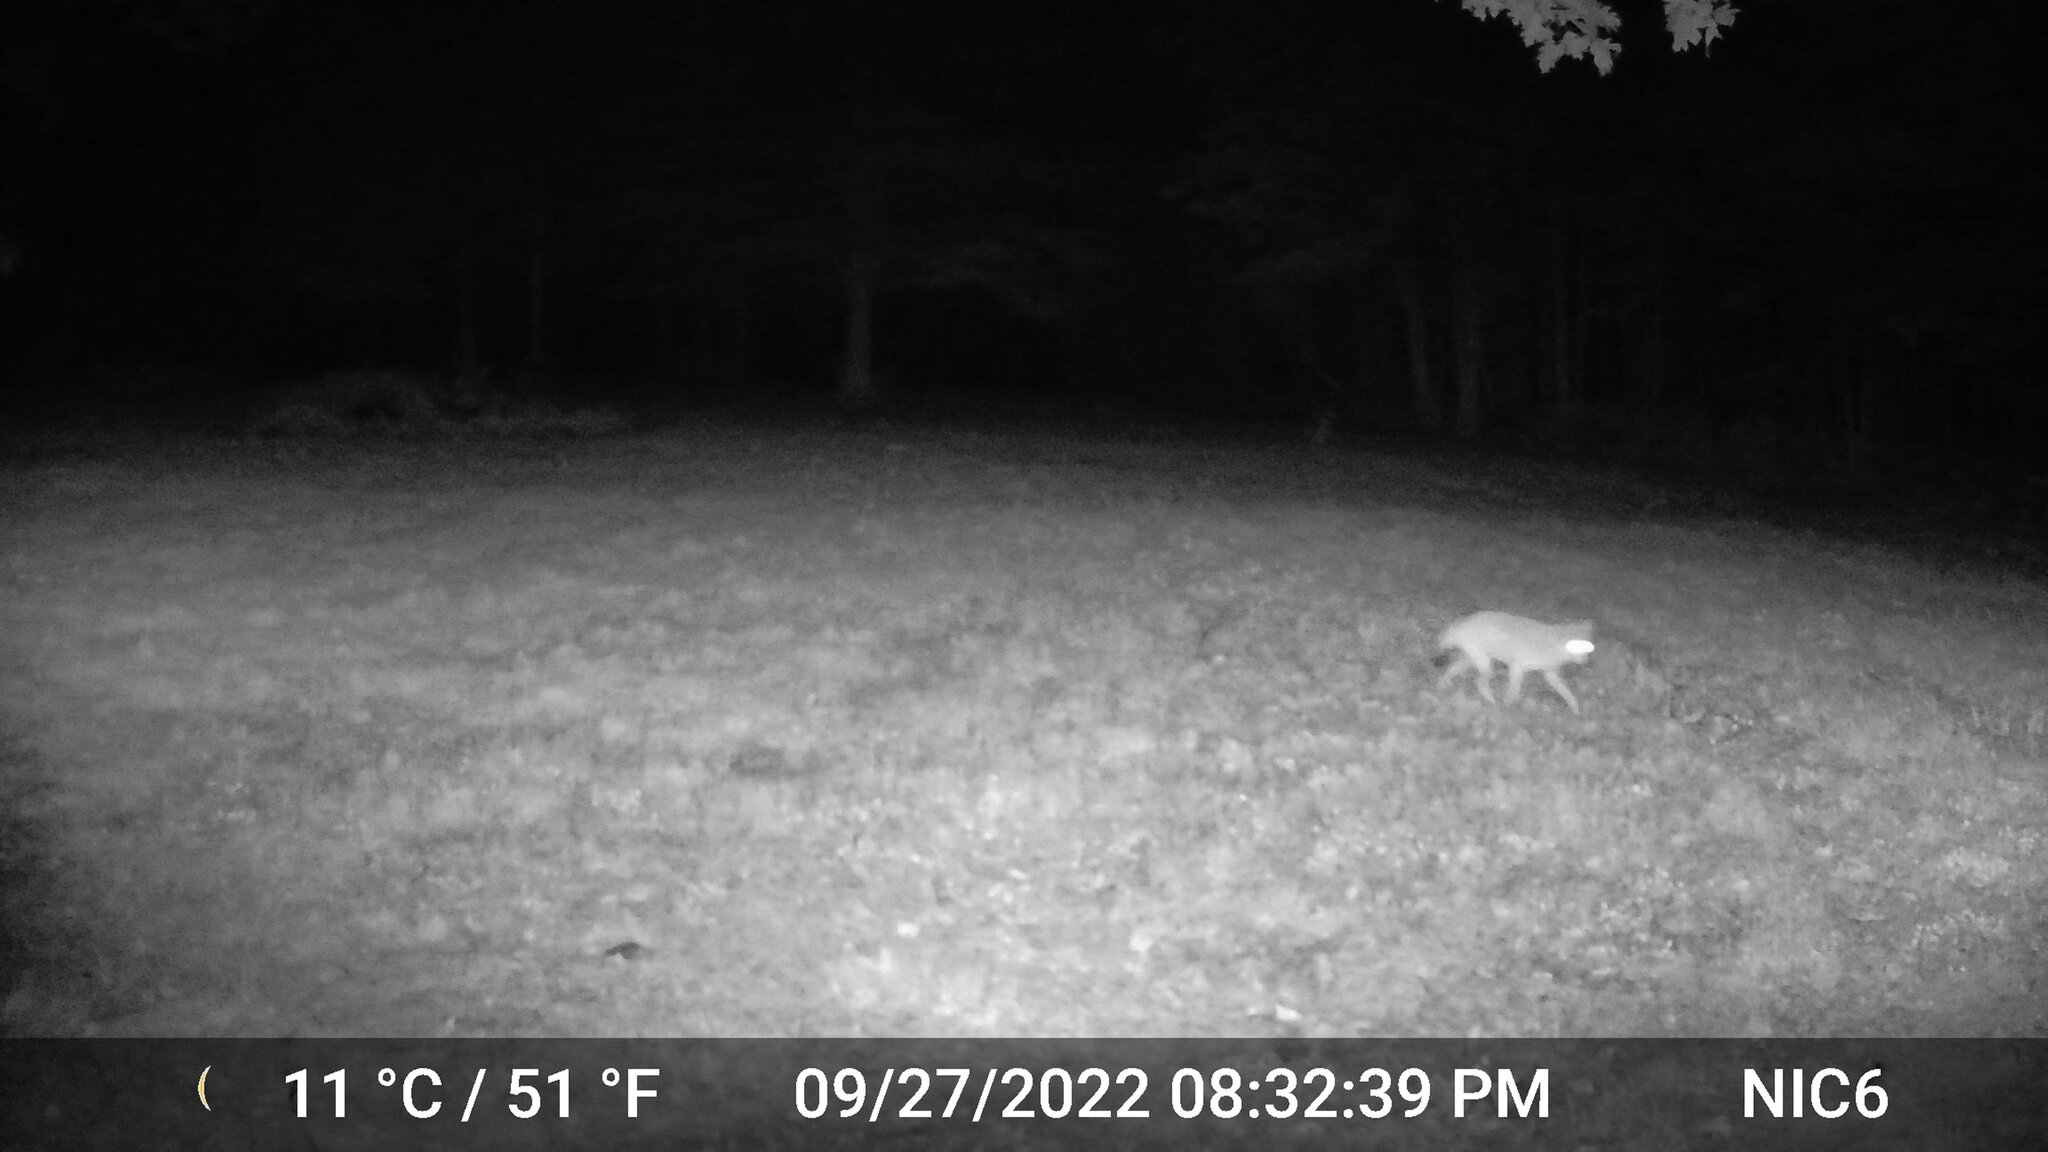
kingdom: Animalia
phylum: Chordata
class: Mammalia
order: Carnivora
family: Canidae
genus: Canis
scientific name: Canis latrans
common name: Coyote
